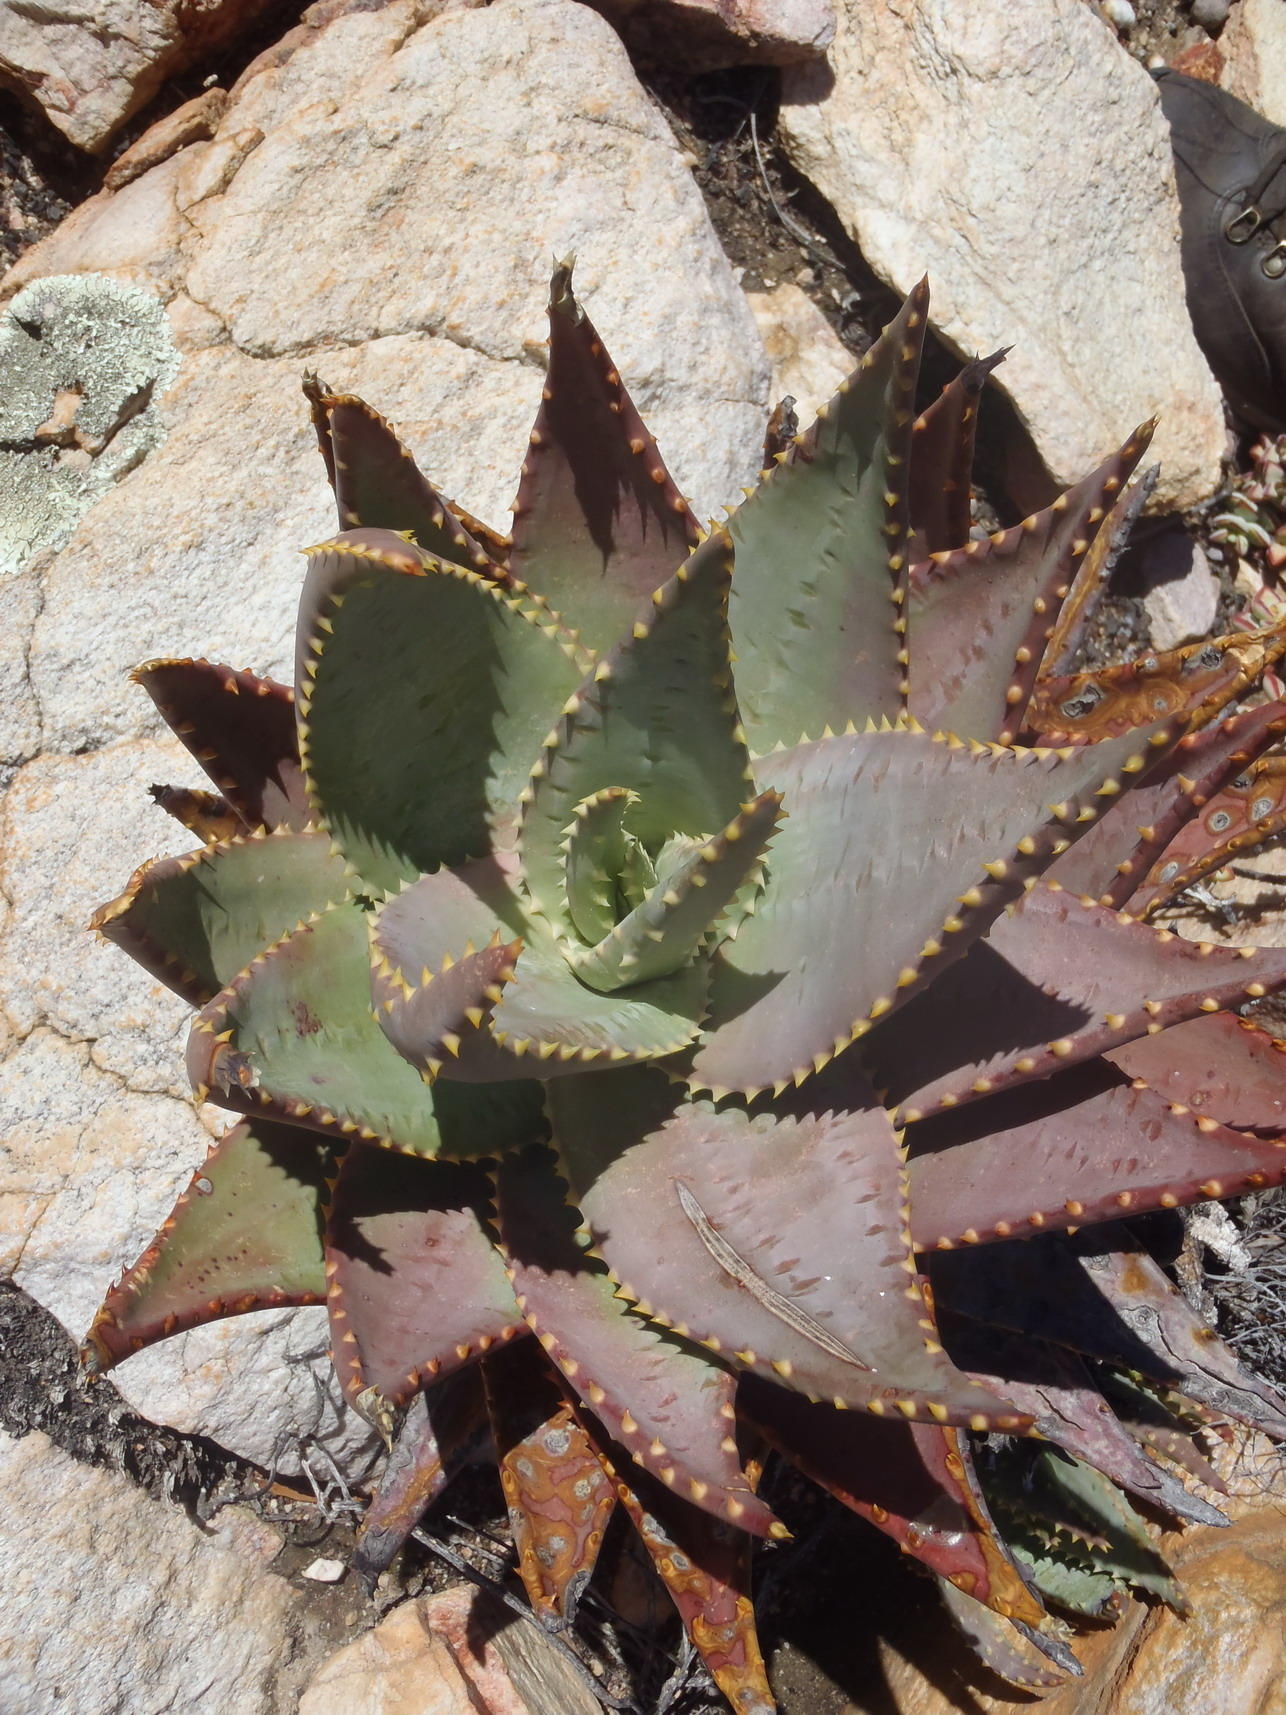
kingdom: Plantae
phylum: Tracheophyta
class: Liliopsida
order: Asparagales
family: Asphodelaceae
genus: Aloe
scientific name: Aloe comptonii
